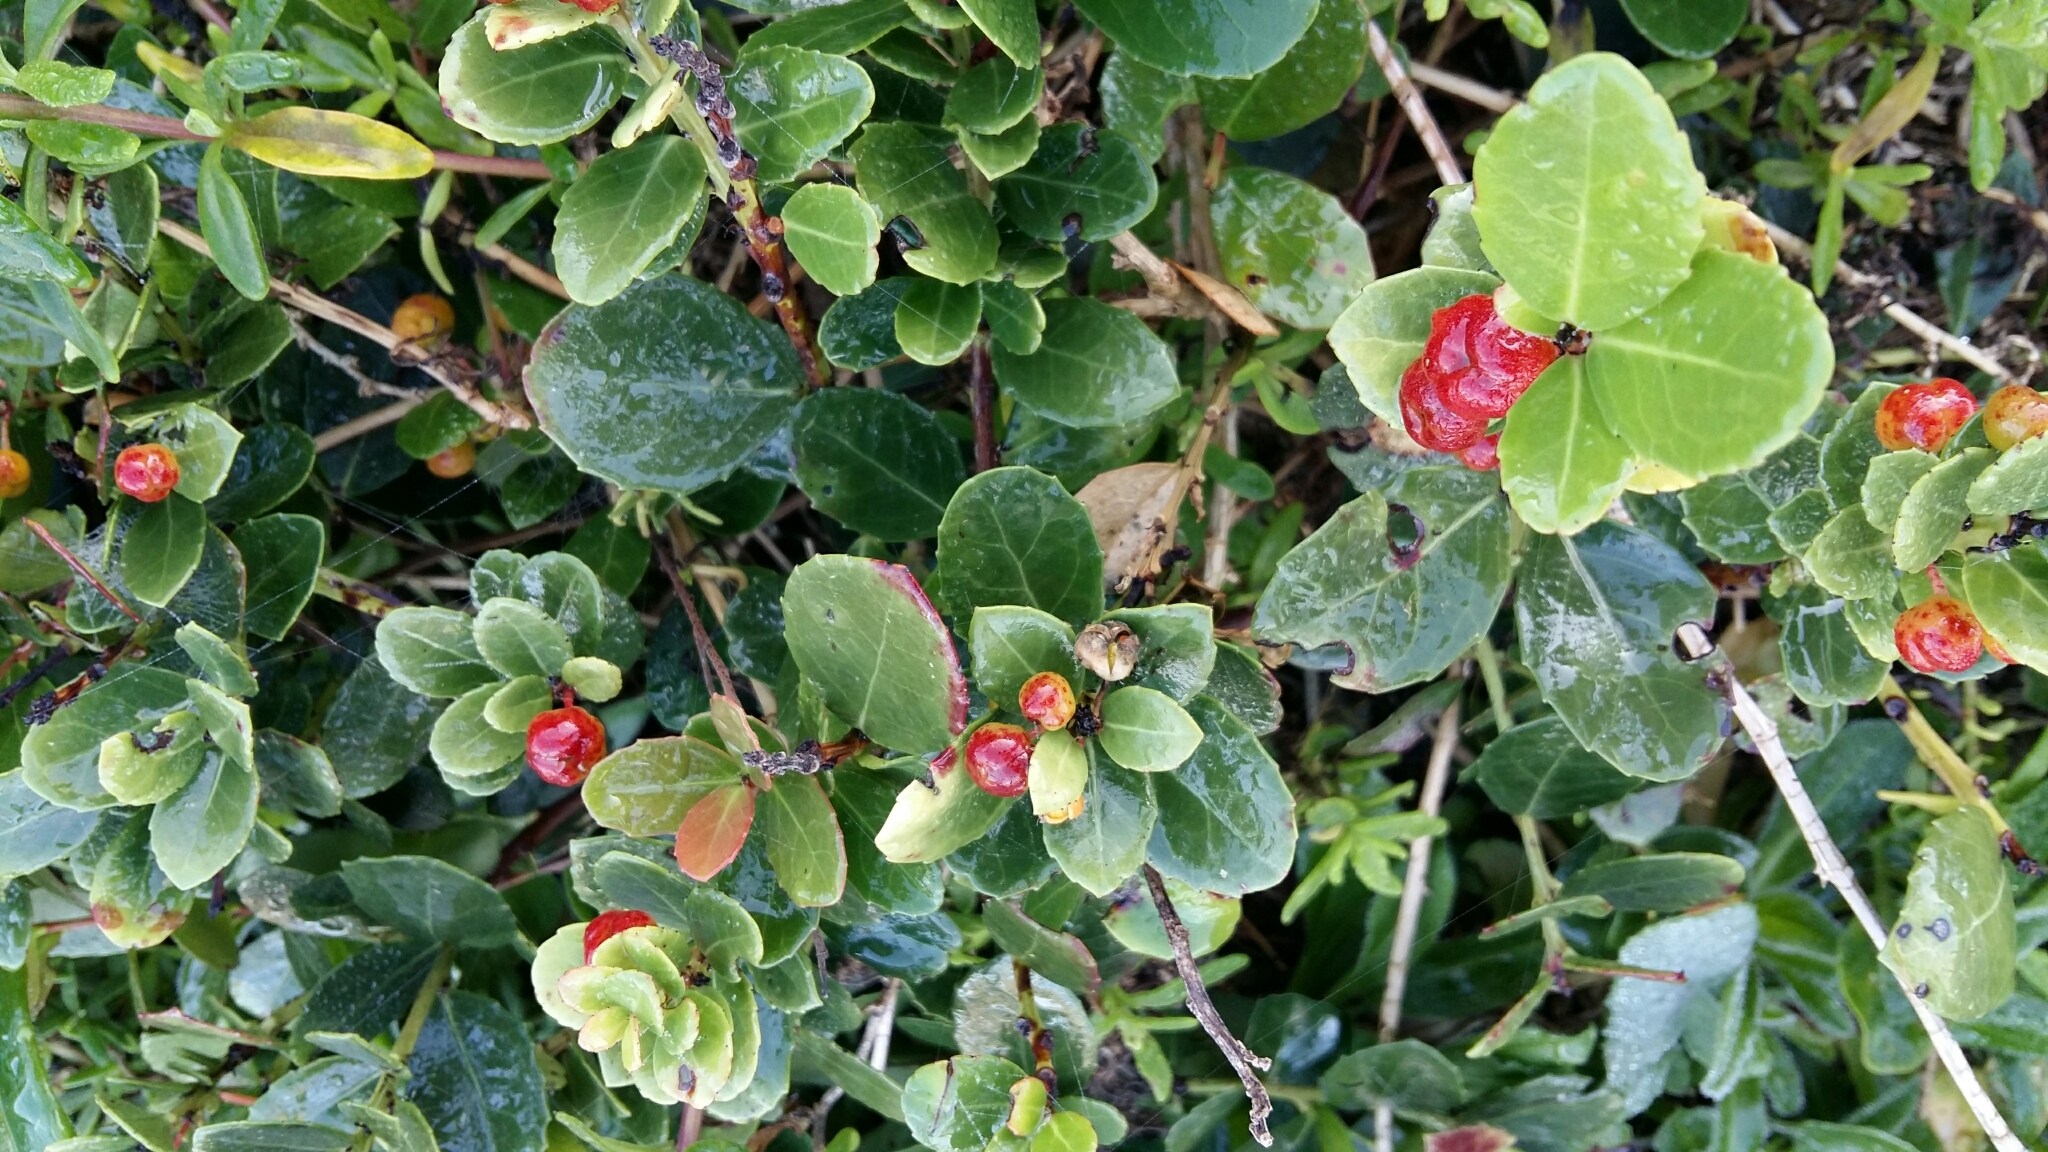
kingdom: Plantae
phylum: Tracheophyta
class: Magnoliopsida
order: Celastrales
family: Celastraceae
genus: Gymnosporia
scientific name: Gymnosporia procumbens
